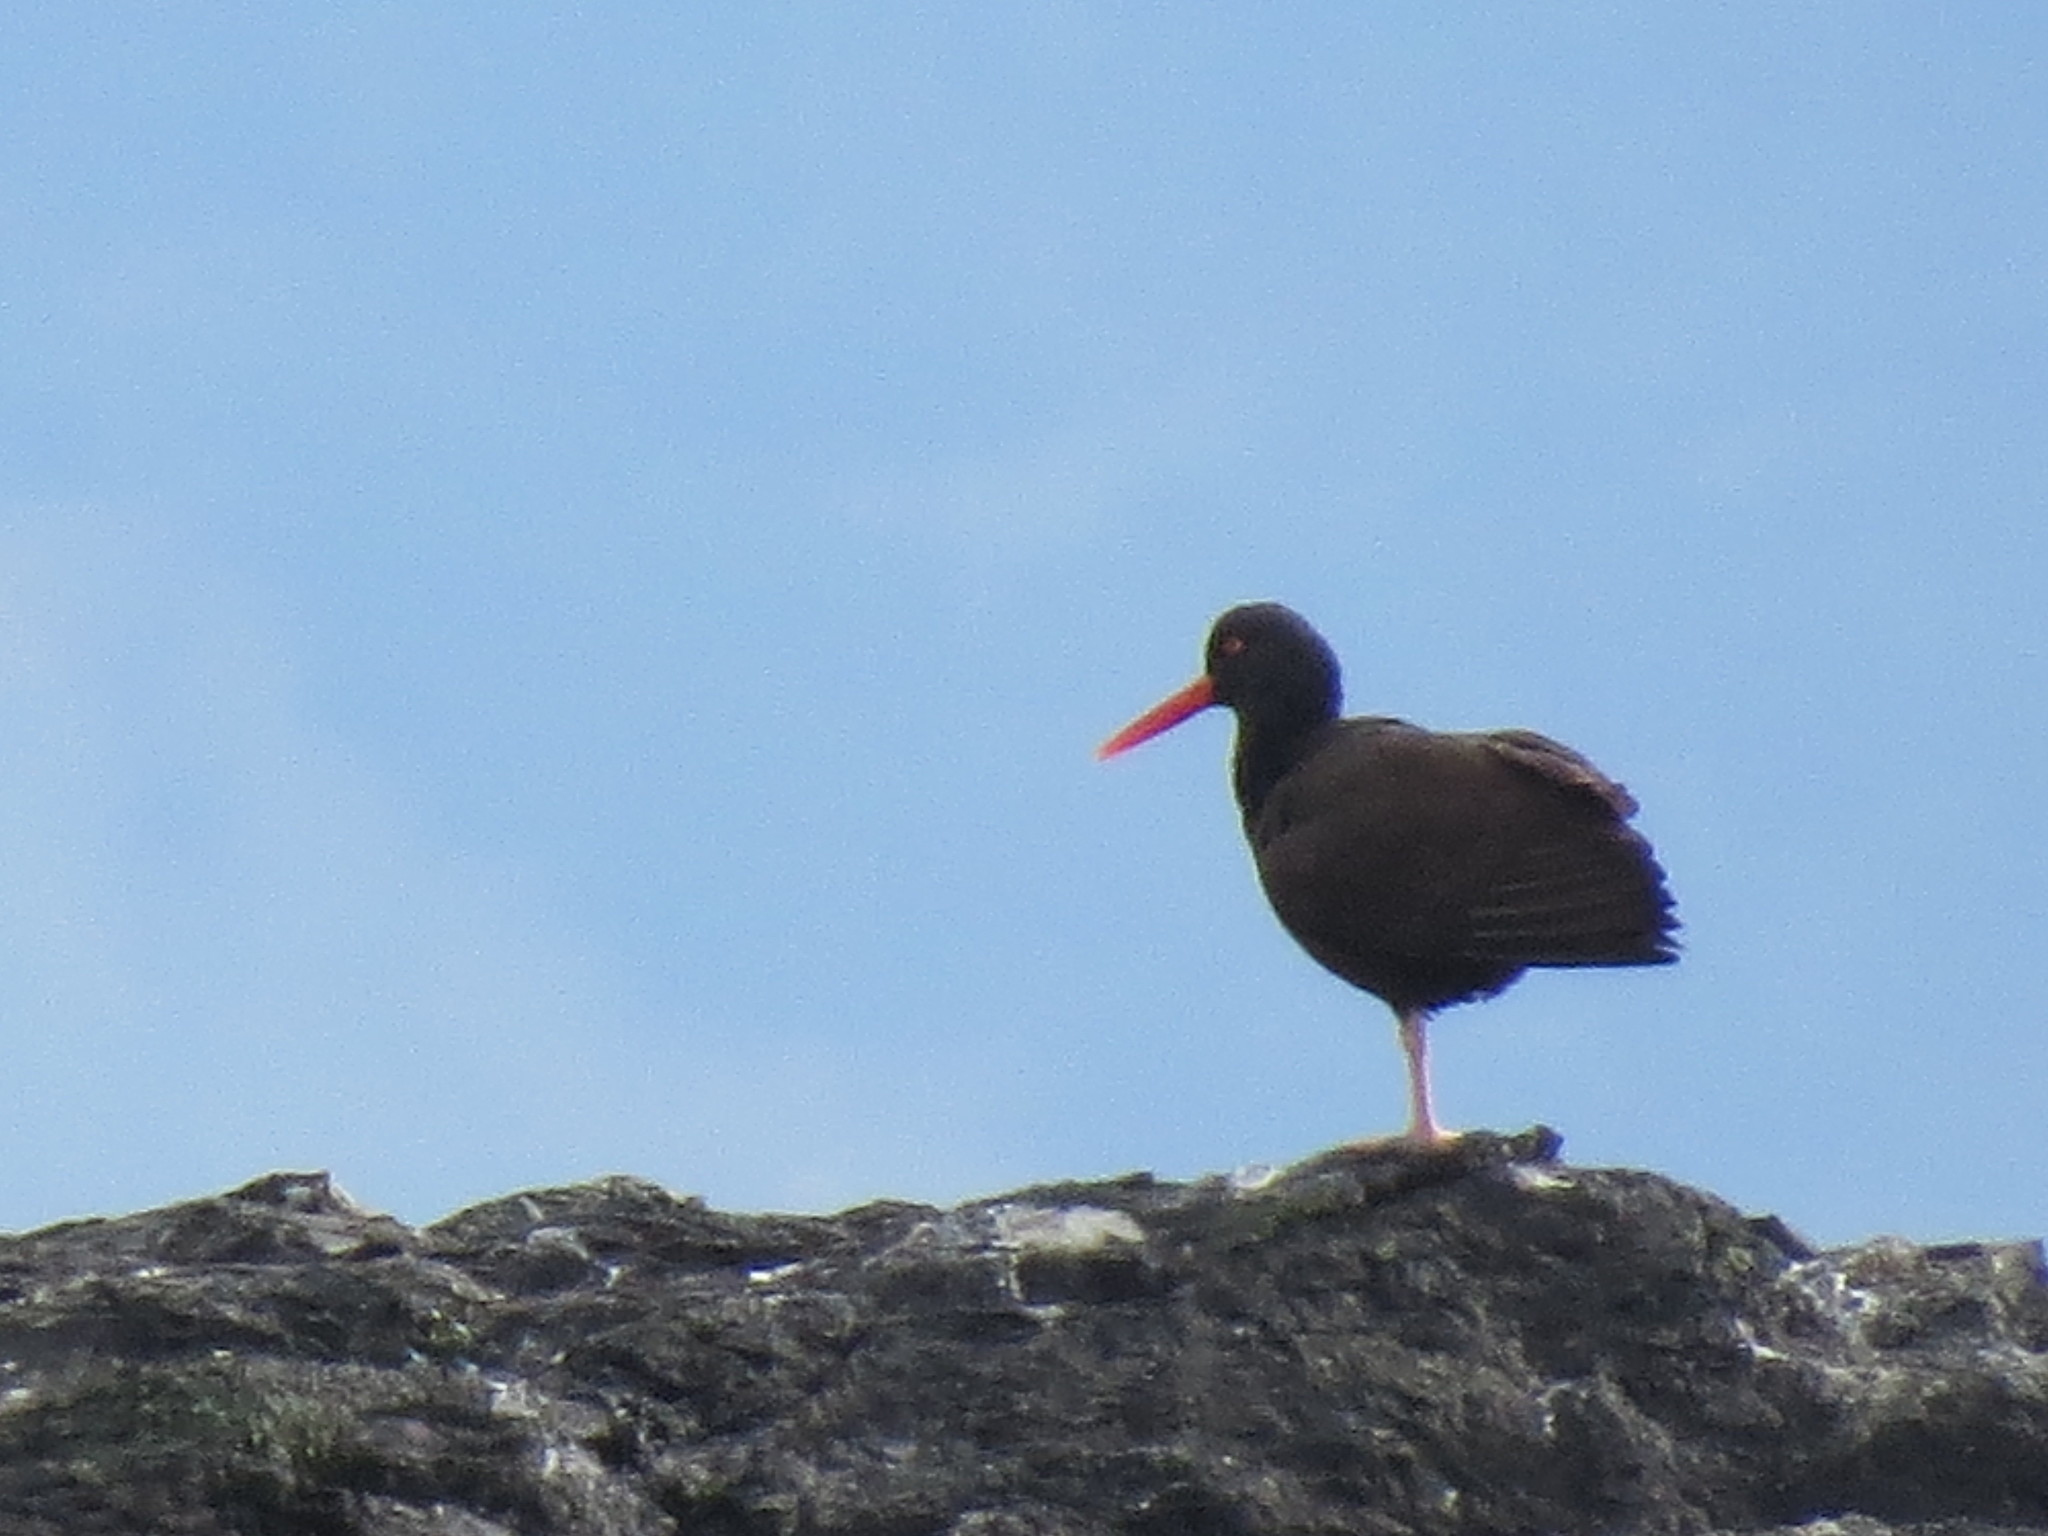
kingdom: Animalia
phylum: Chordata
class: Aves
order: Charadriiformes
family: Haematopodidae
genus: Haematopus
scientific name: Haematopus bachmani
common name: Black oystercatcher
